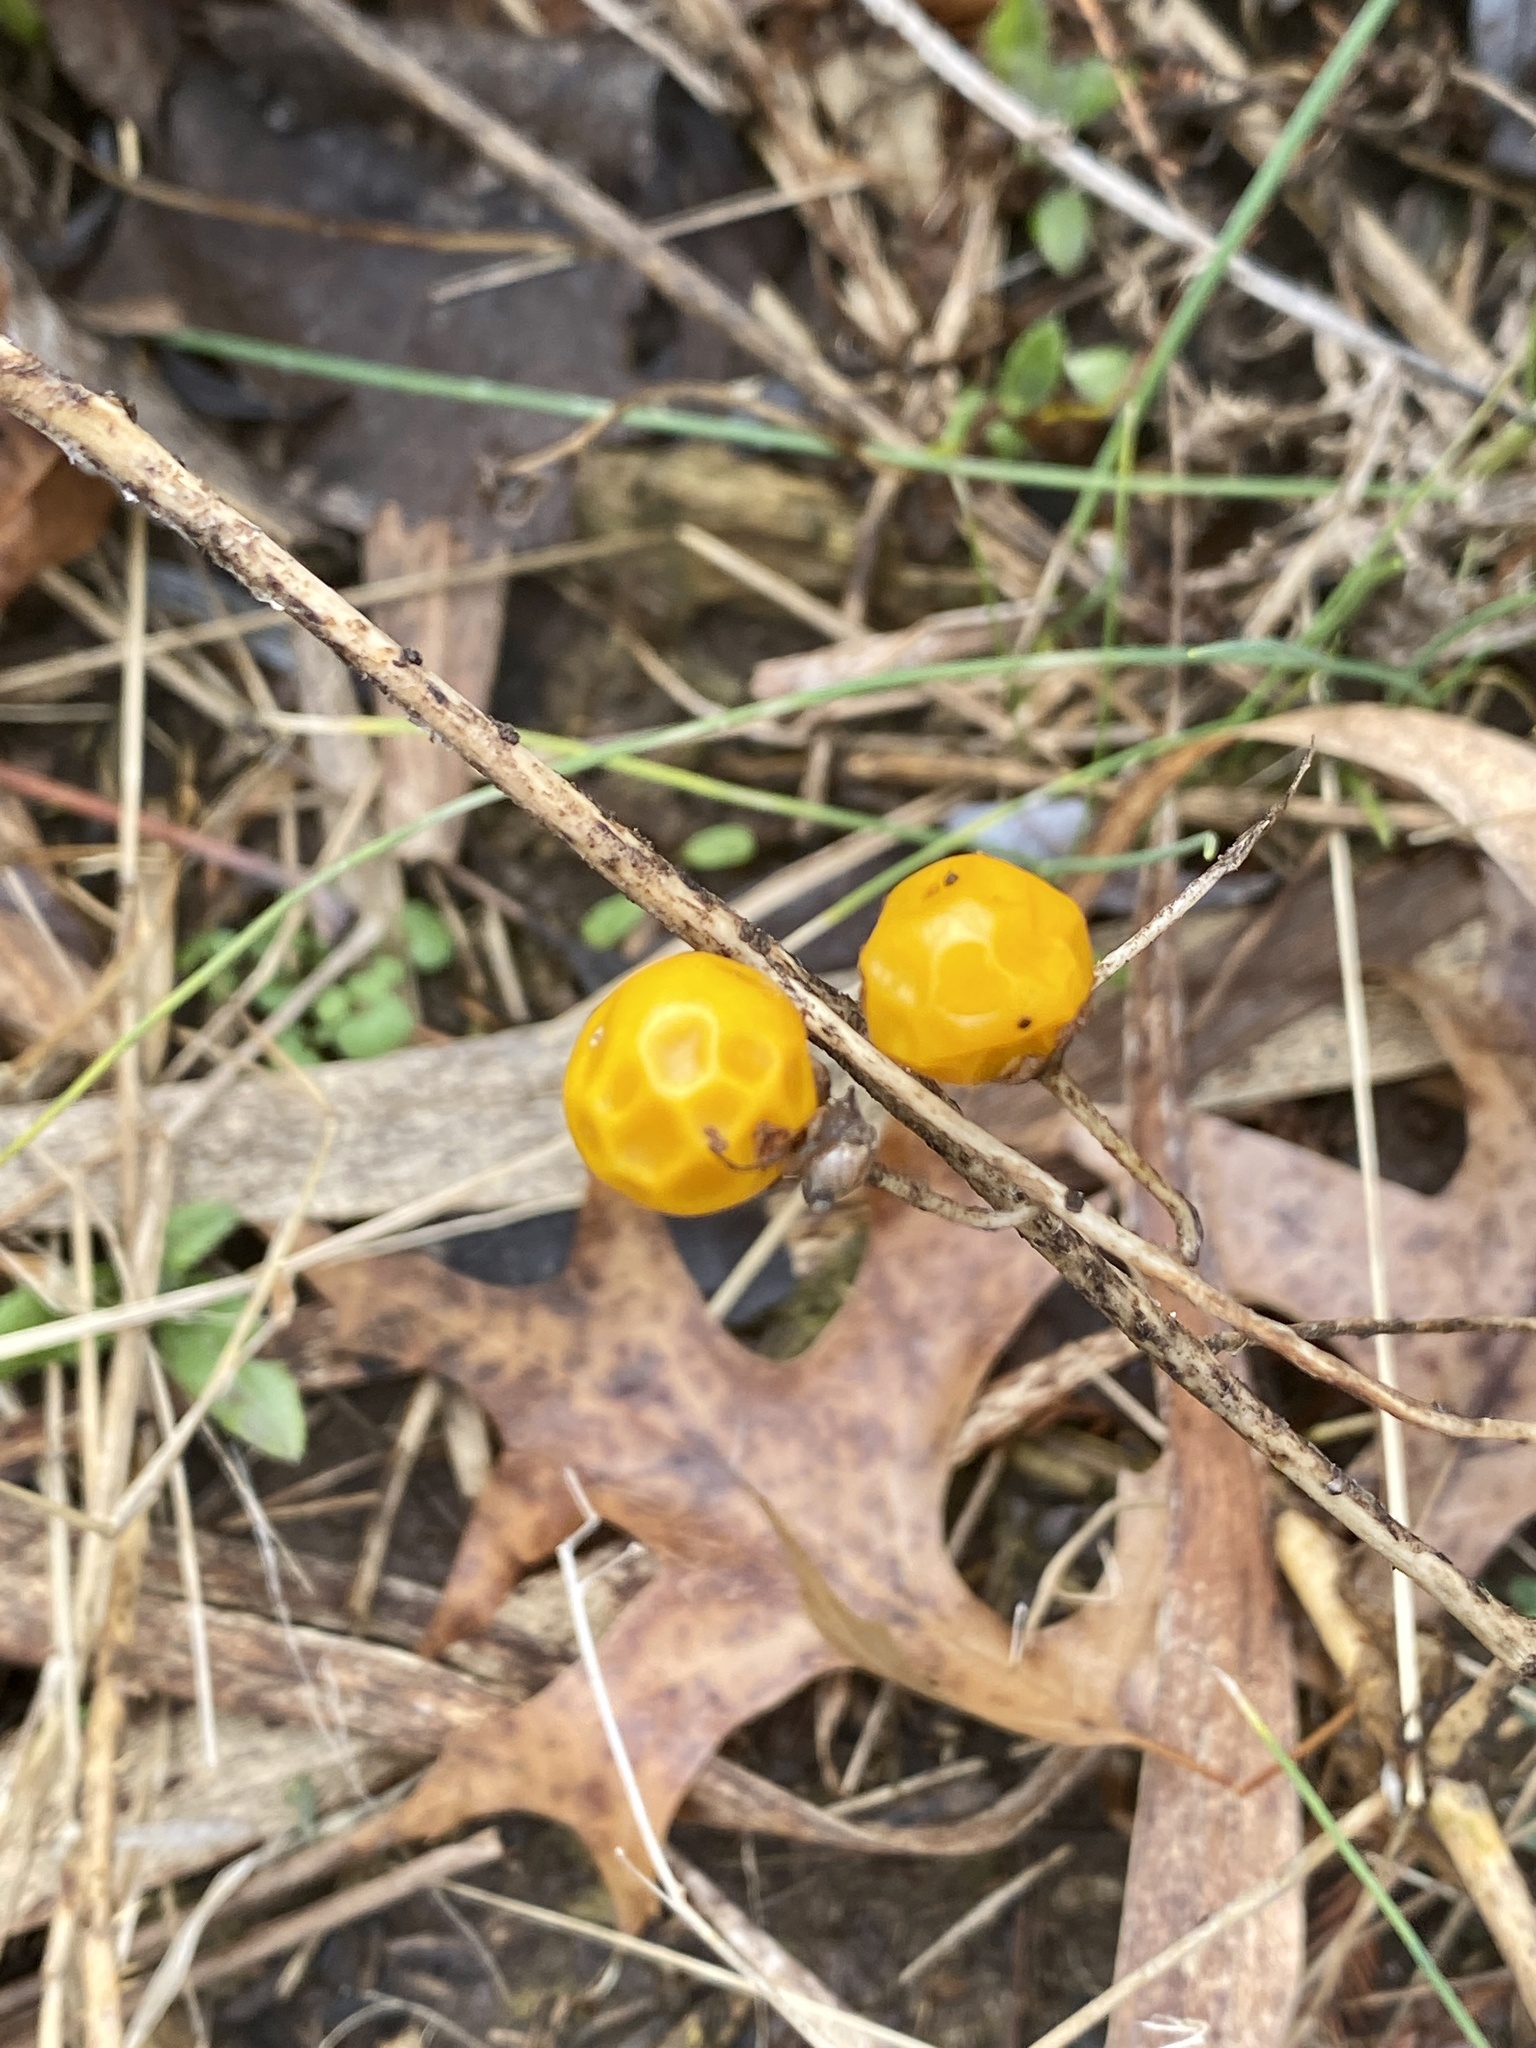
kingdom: Plantae
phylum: Tracheophyta
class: Magnoliopsida
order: Solanales
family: Solanaceae
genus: Solanum
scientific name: Solanum carolinense
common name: Horse-nettle
